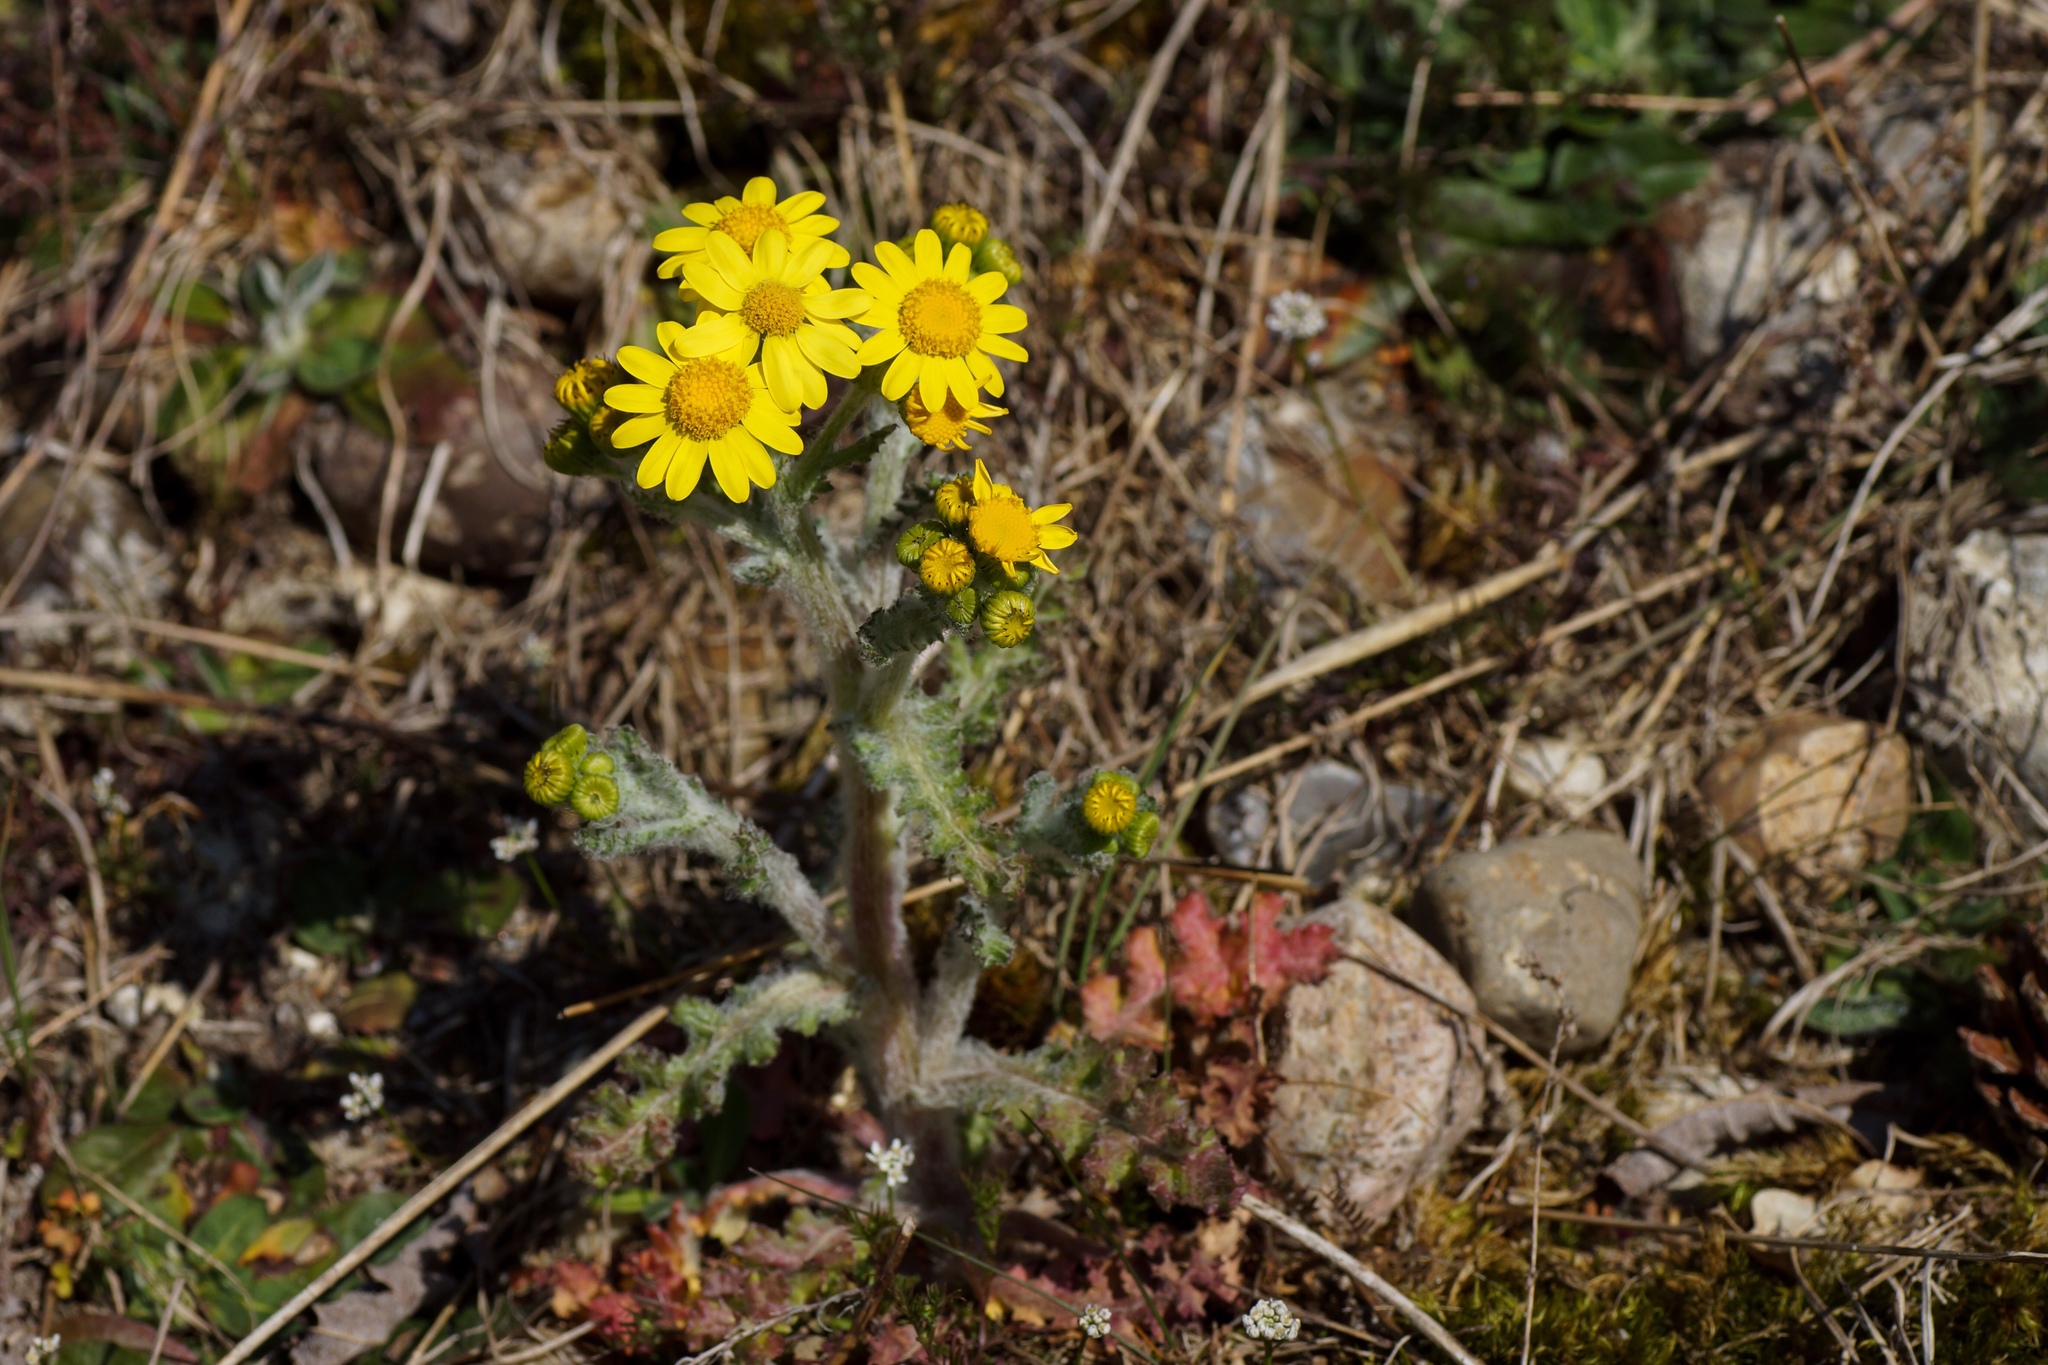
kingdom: Plantae
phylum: Tracheophyta
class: Magnoliopsida
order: Asterales
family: Asteraceae
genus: Senecio
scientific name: Senecio vernalis
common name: Eastern groundsel
